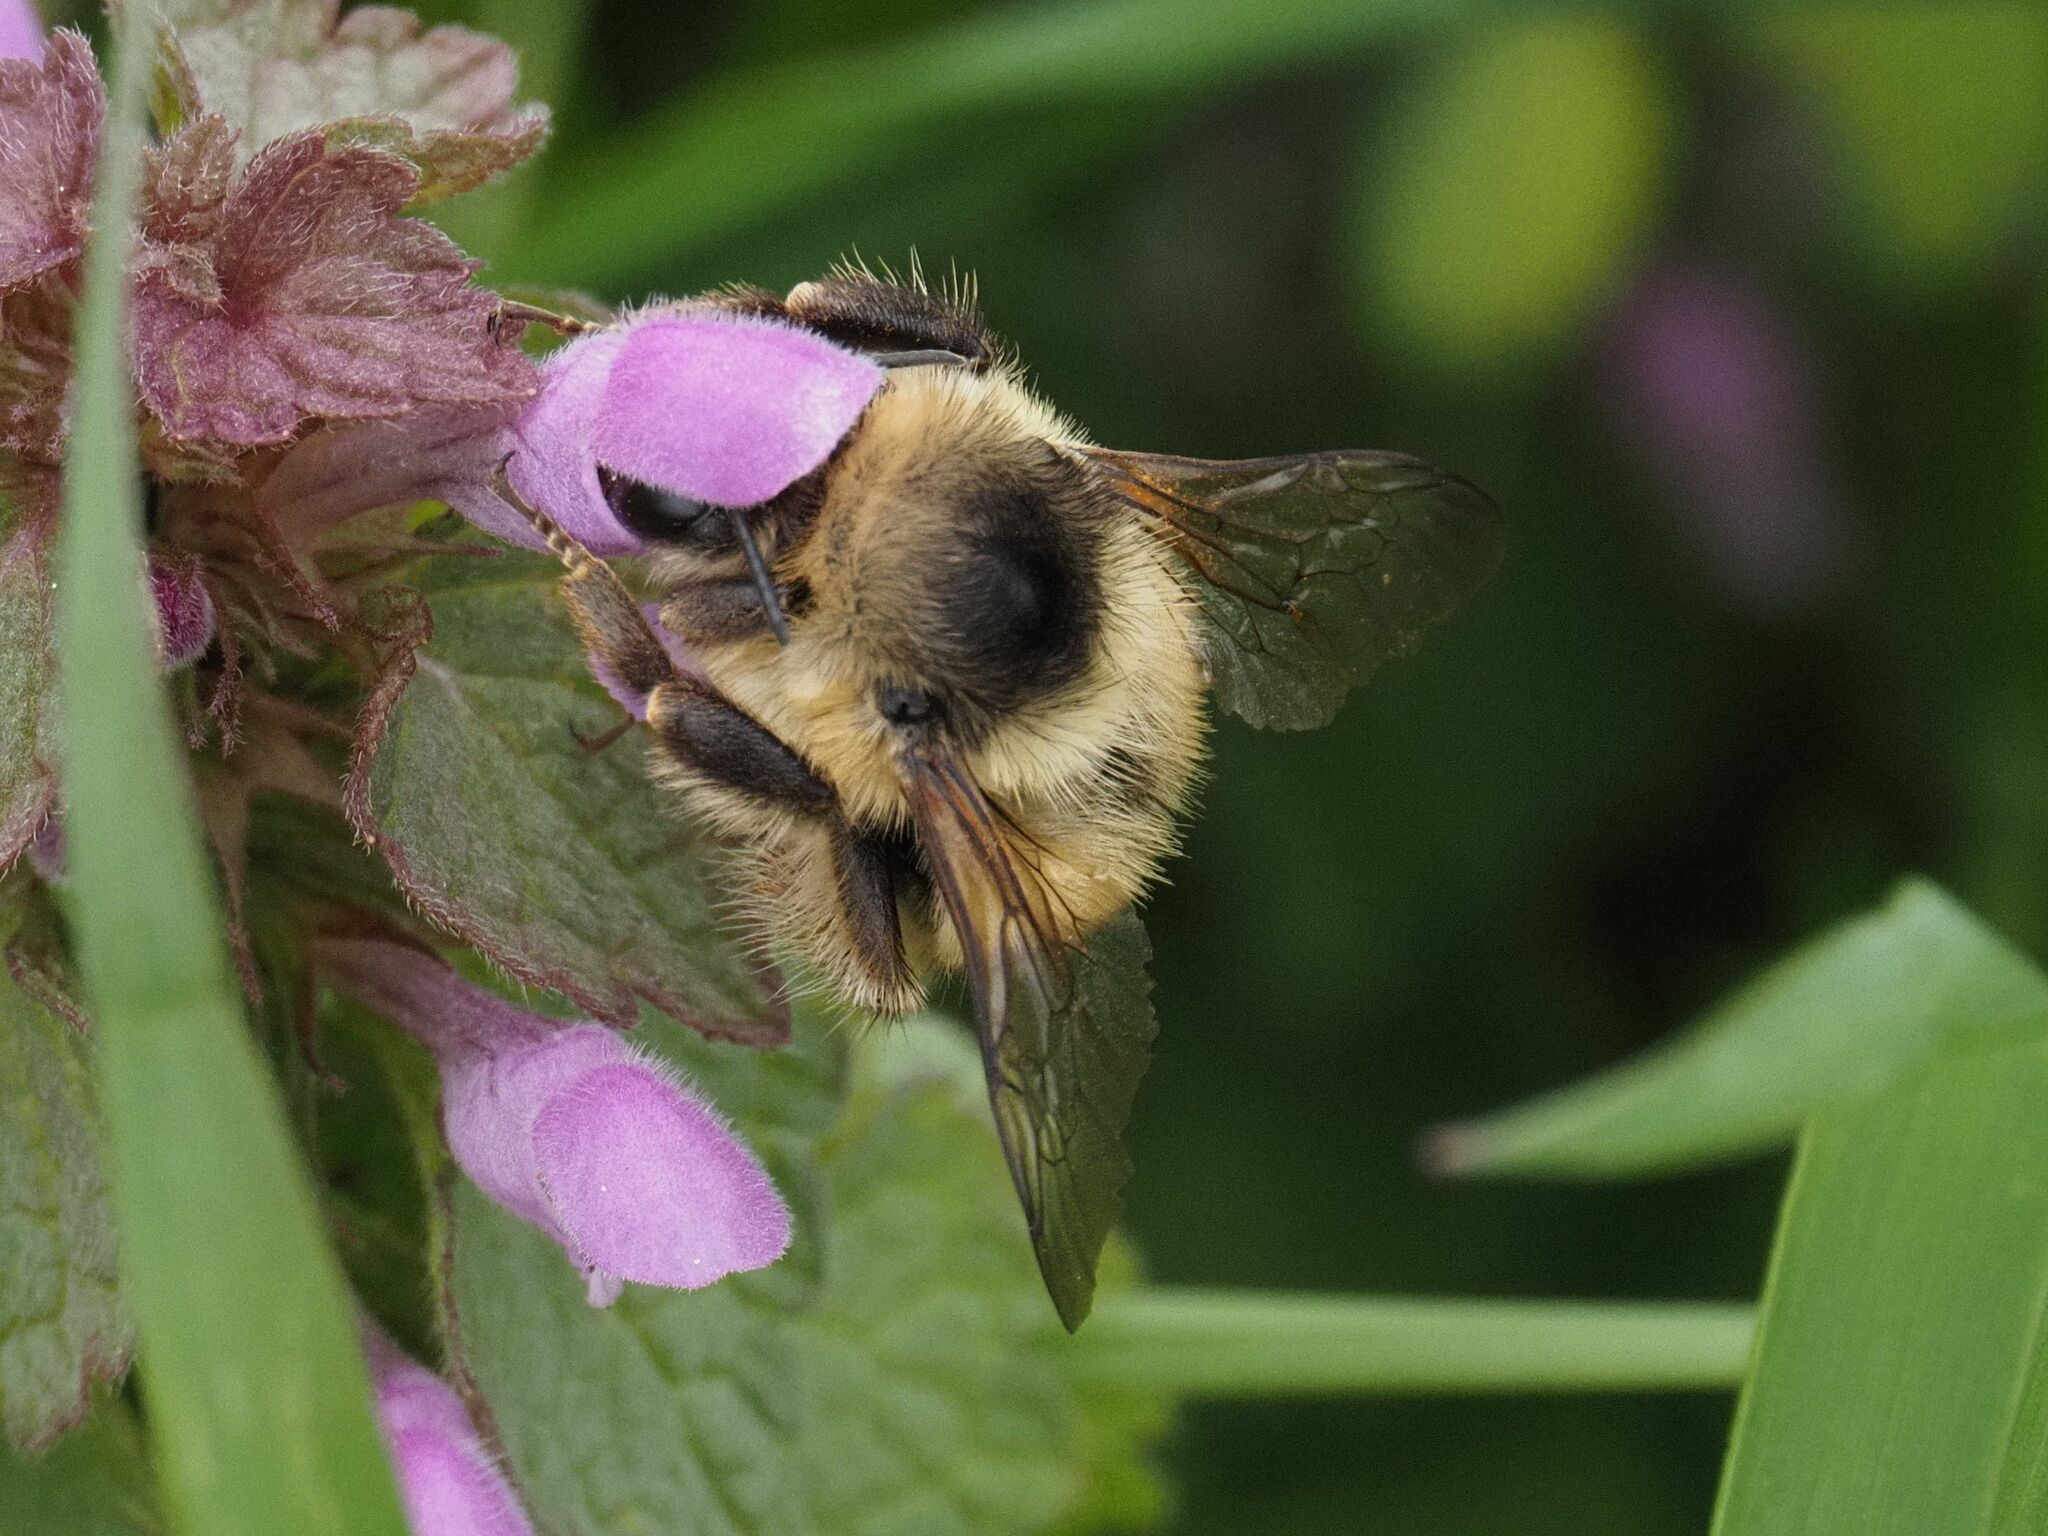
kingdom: Animalia
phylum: Arthropoda
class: Insecta
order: Hymenoptera
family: Apidae
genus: Bombus
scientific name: Bombus sylvarum
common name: Shrill carder bee
